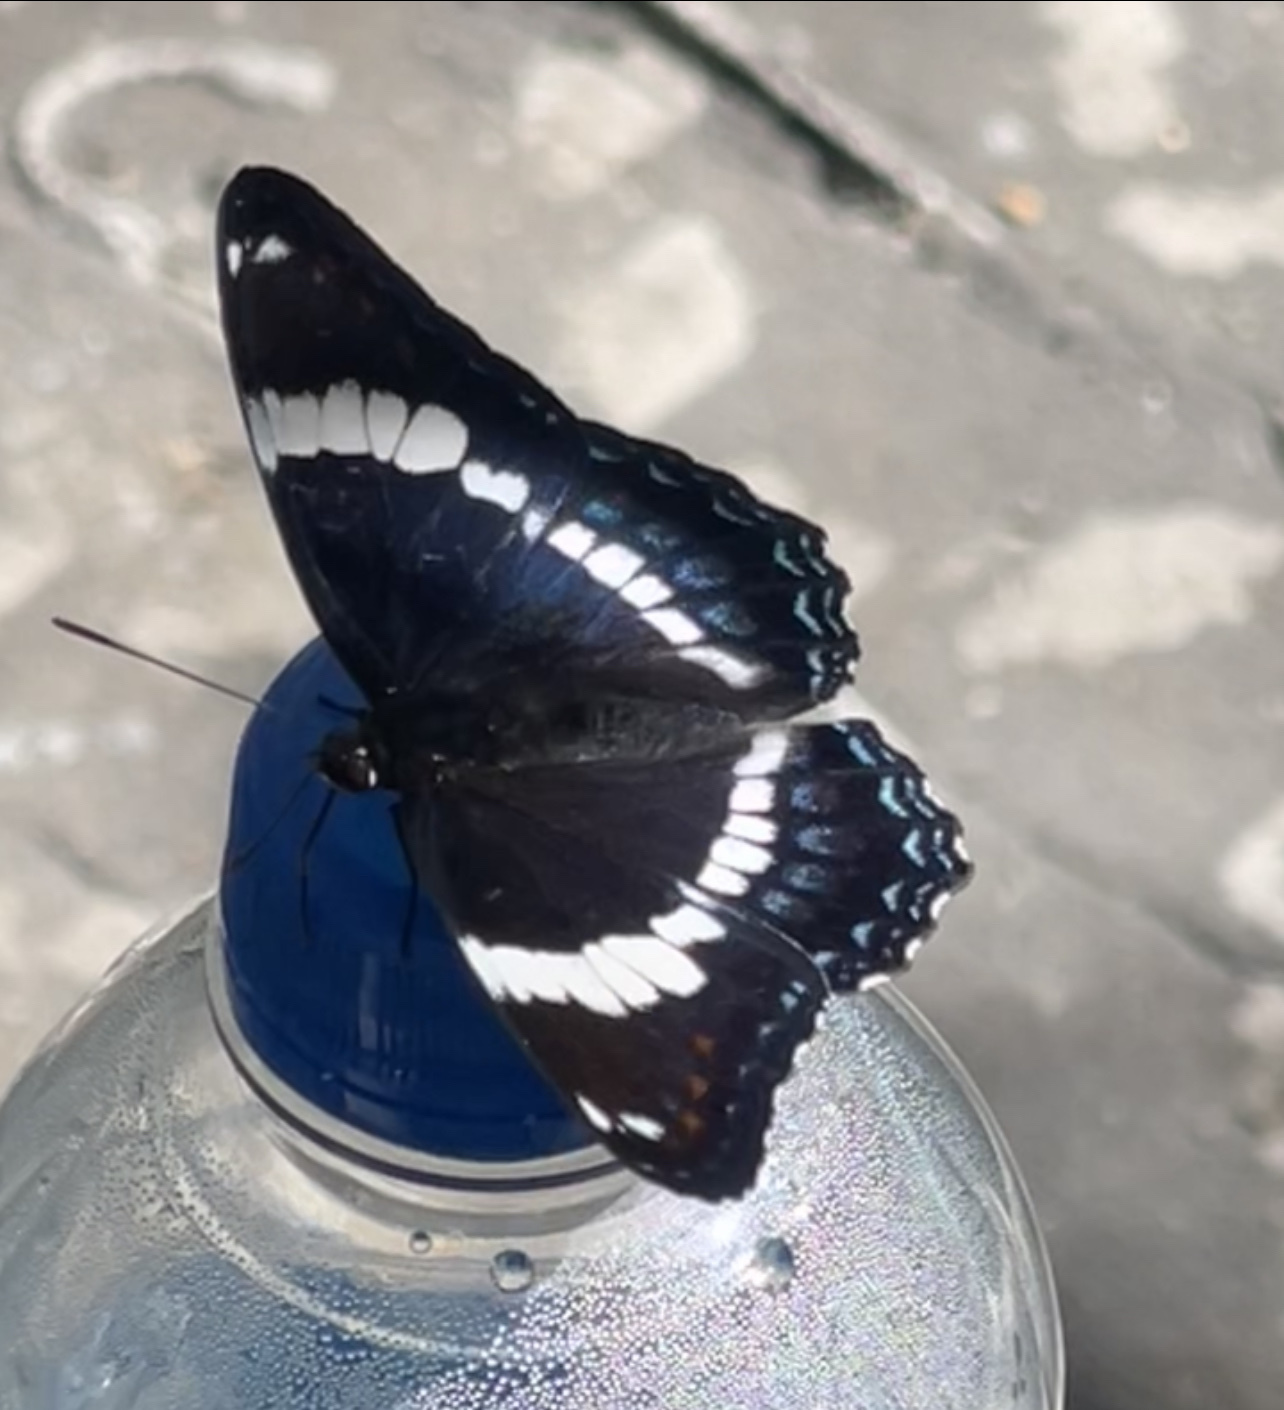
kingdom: Animalia
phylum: Arthropoda
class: Insecta
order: Lepidoptera
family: Nymphalidae
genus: Limenitis
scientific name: Limenitis arthemis
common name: Red-spotted admiral
